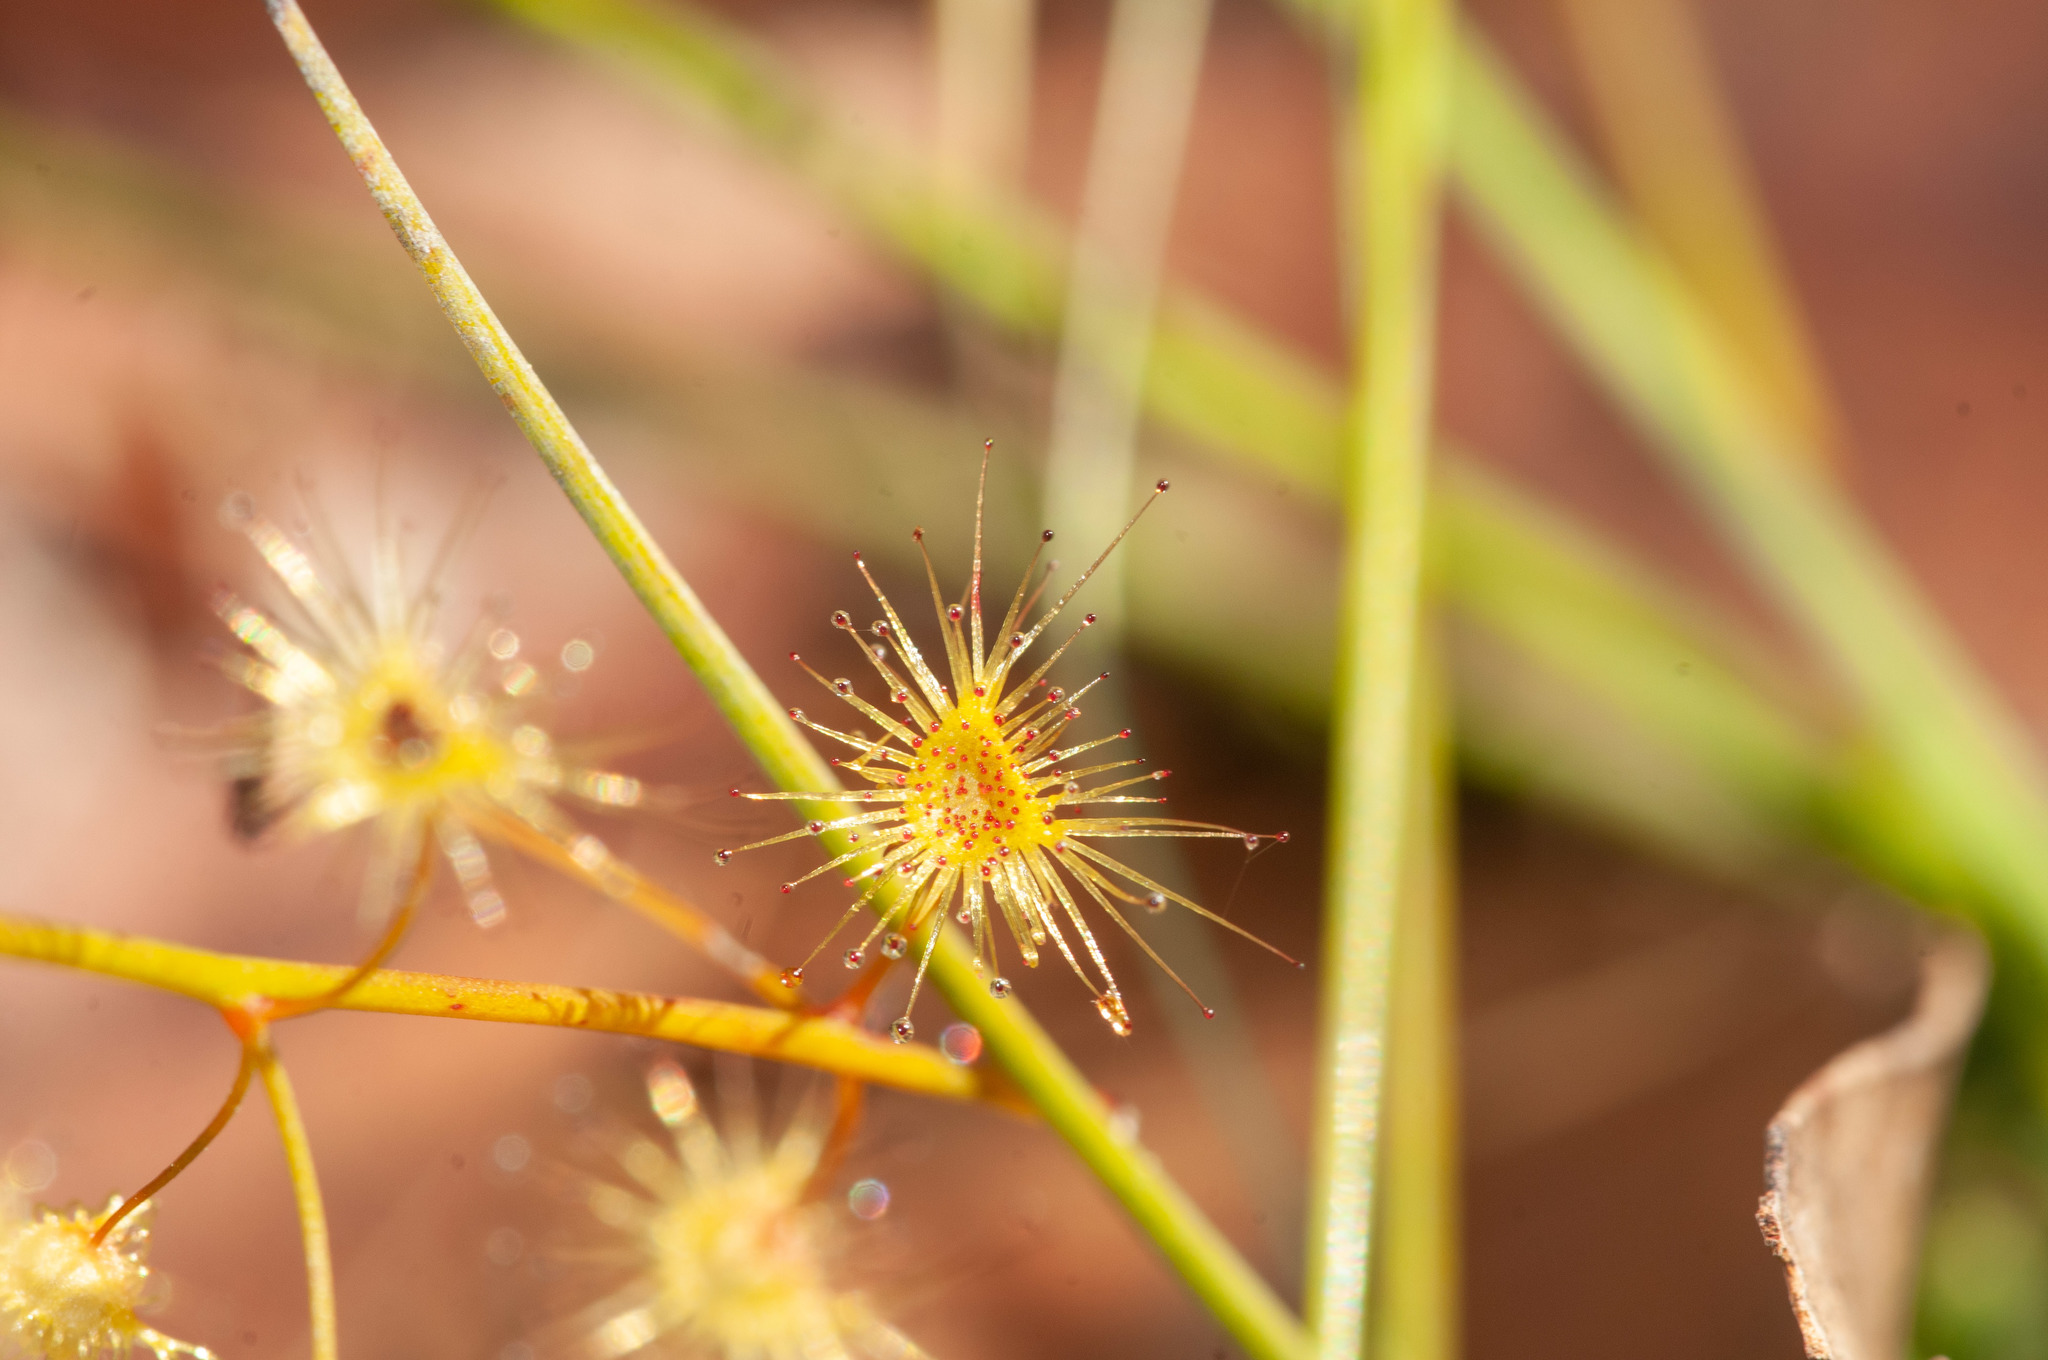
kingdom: Plantae
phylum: Tracheophyta
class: Magnoliopsida
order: Caryophyllales
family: Droseraceae
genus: Drosera
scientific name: Drosera peltata
